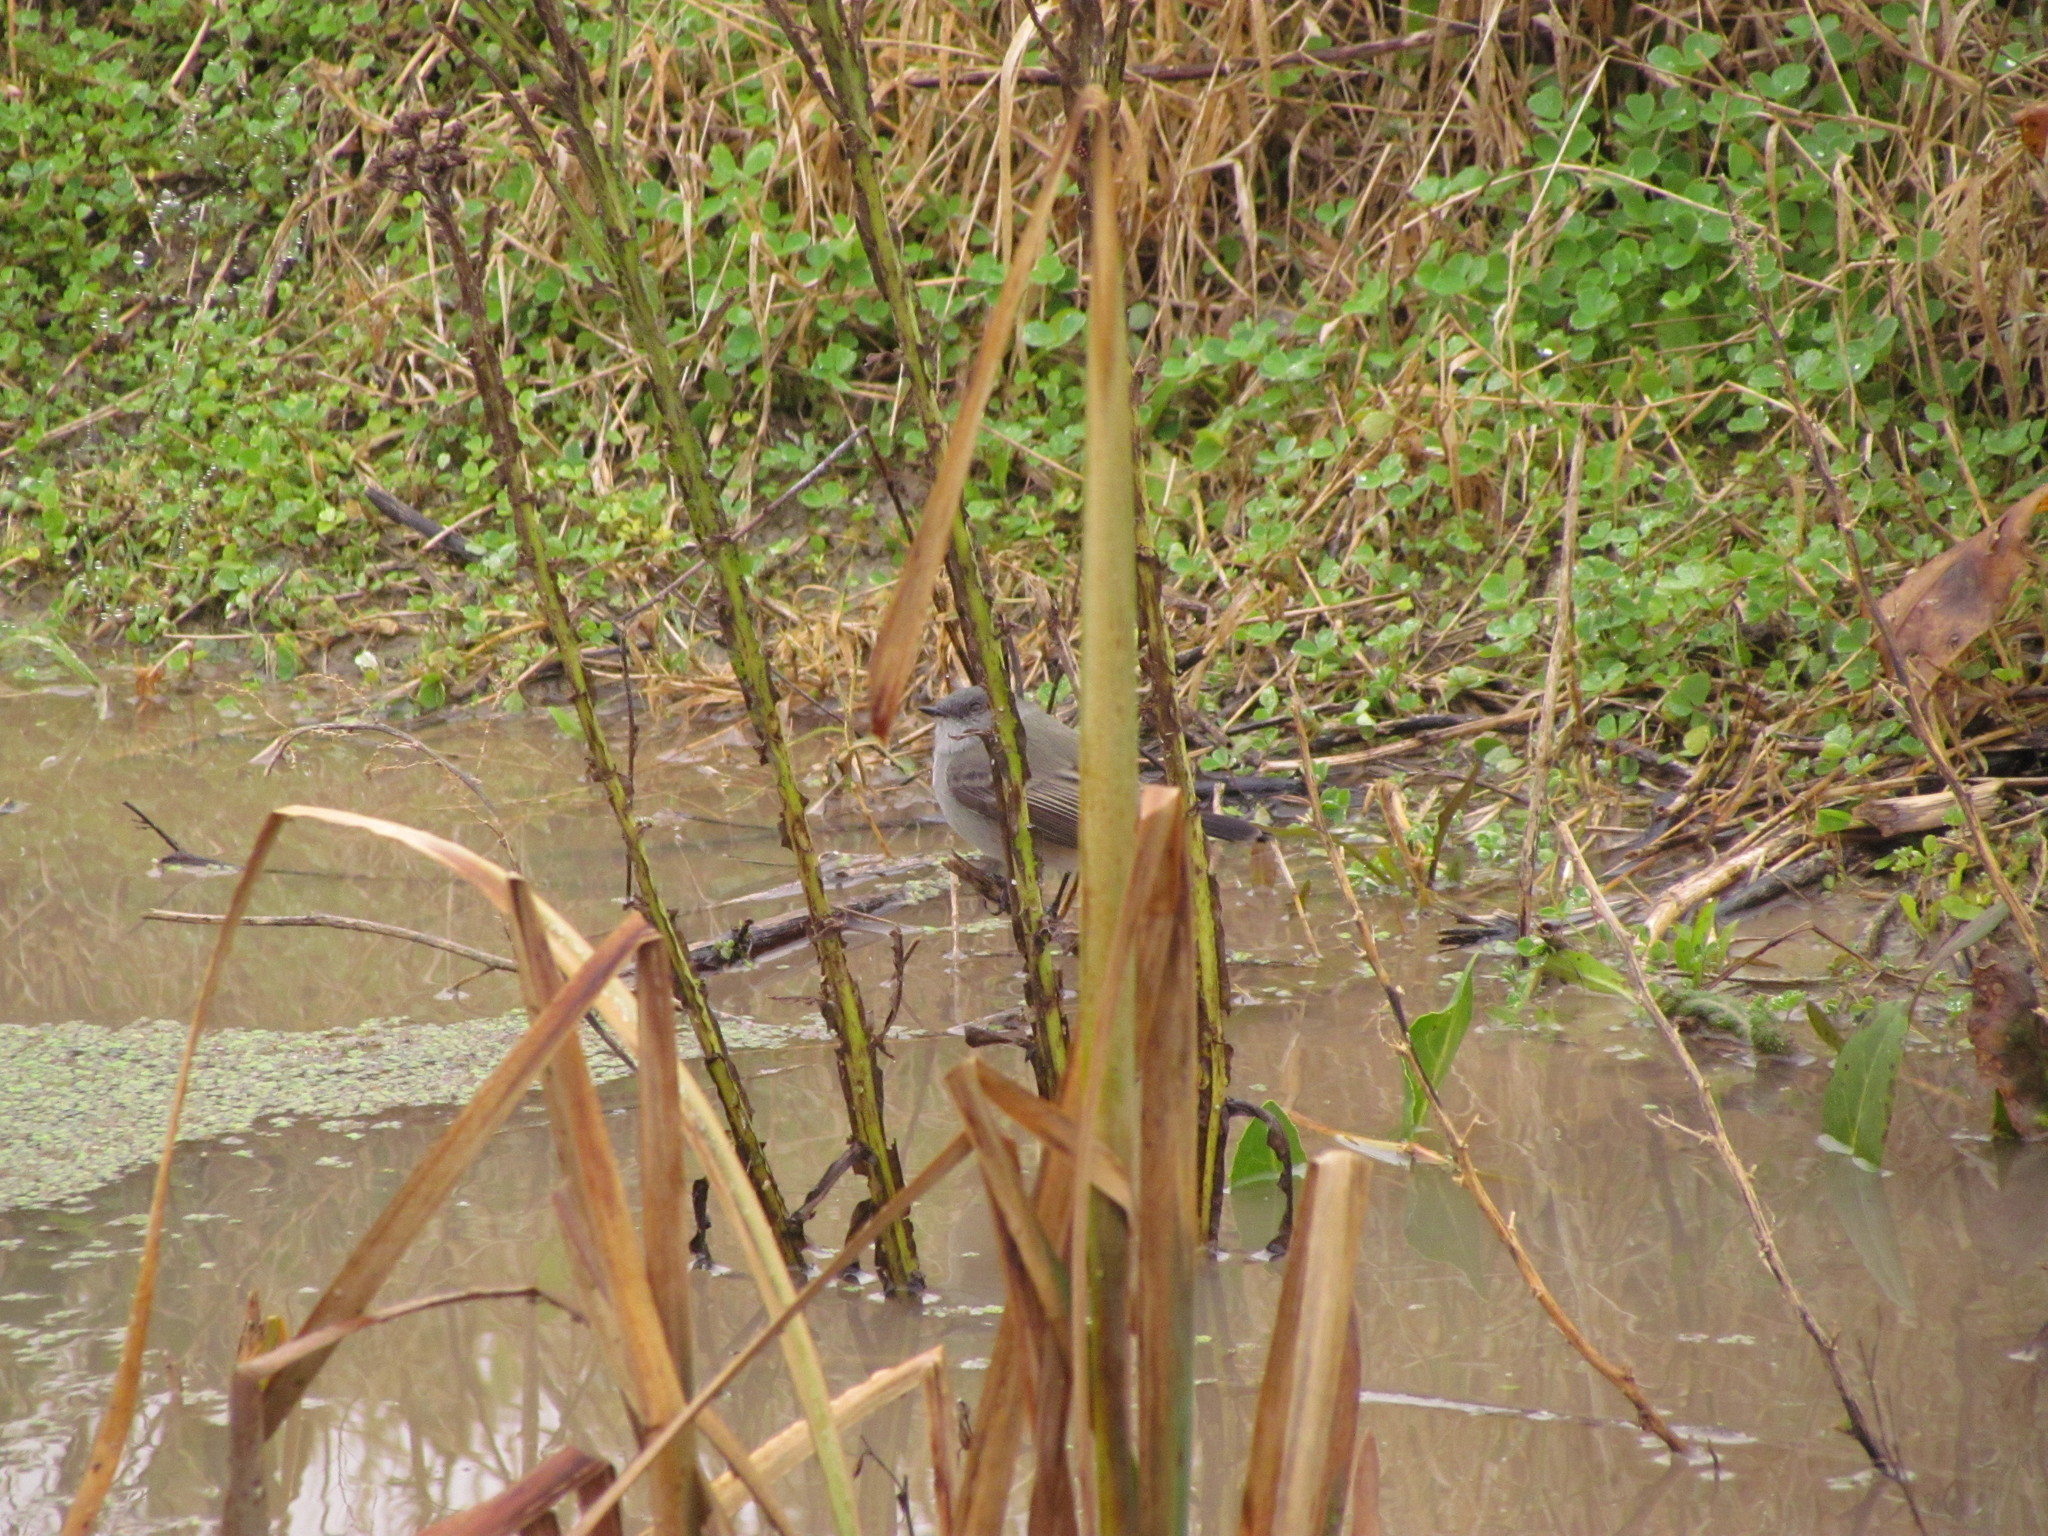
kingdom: Animalia
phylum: Chordata
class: Aves
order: Passeriformes
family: Tyrannidae
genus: Serpophaga
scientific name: Serpophaga nigricans
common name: Sooty tyrannulet
